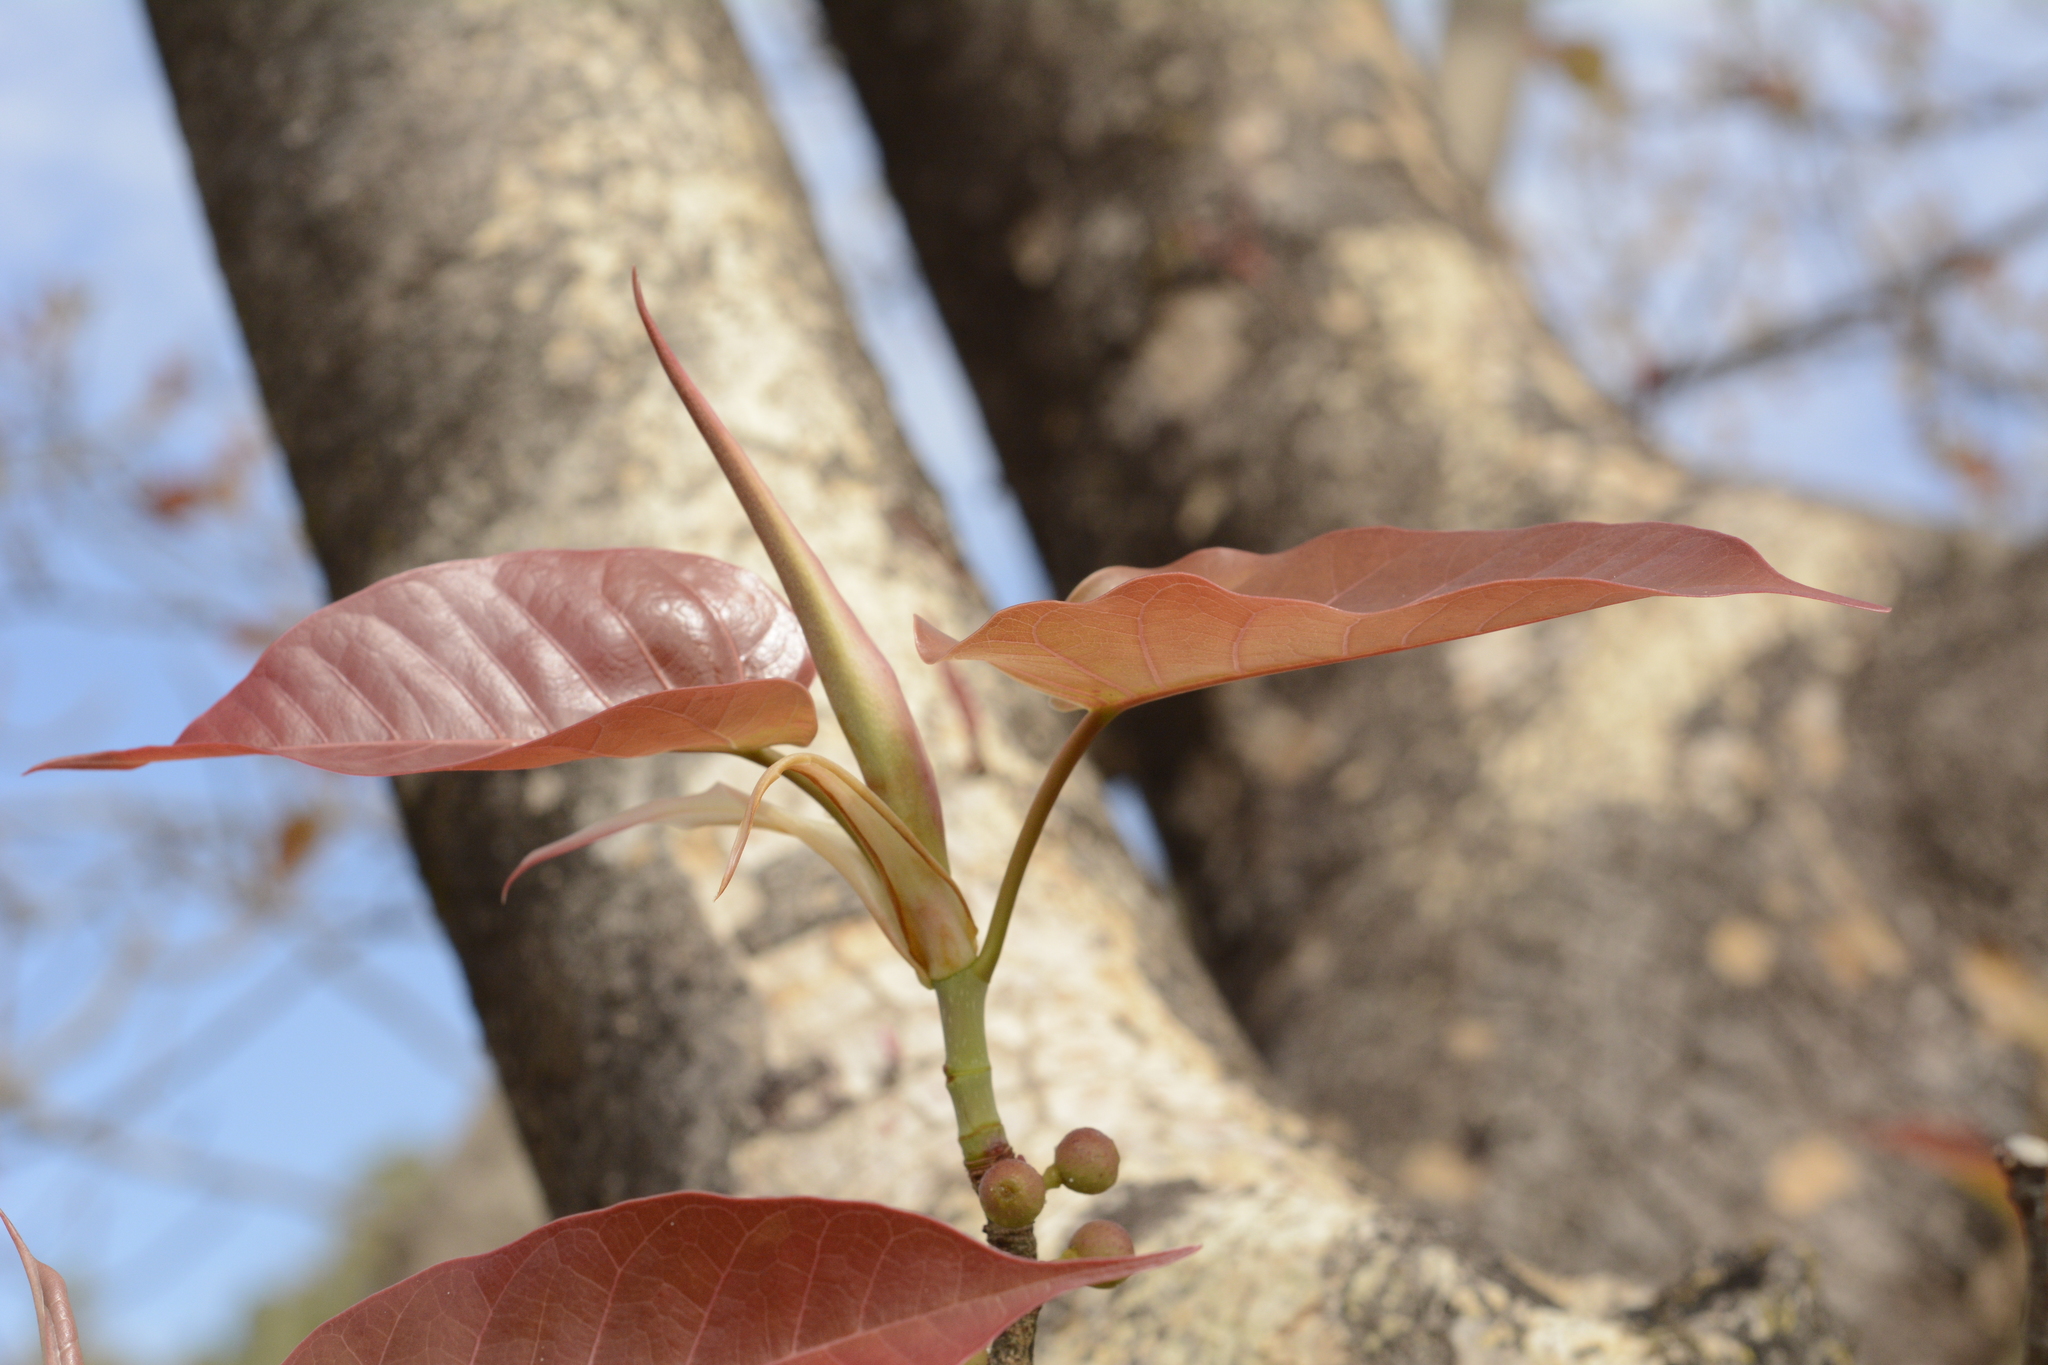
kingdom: Plantae
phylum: Tracheophyta
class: Magnoliopsida
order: Rosales
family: Moraceae
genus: Ficus
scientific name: Ficus arnottiana
